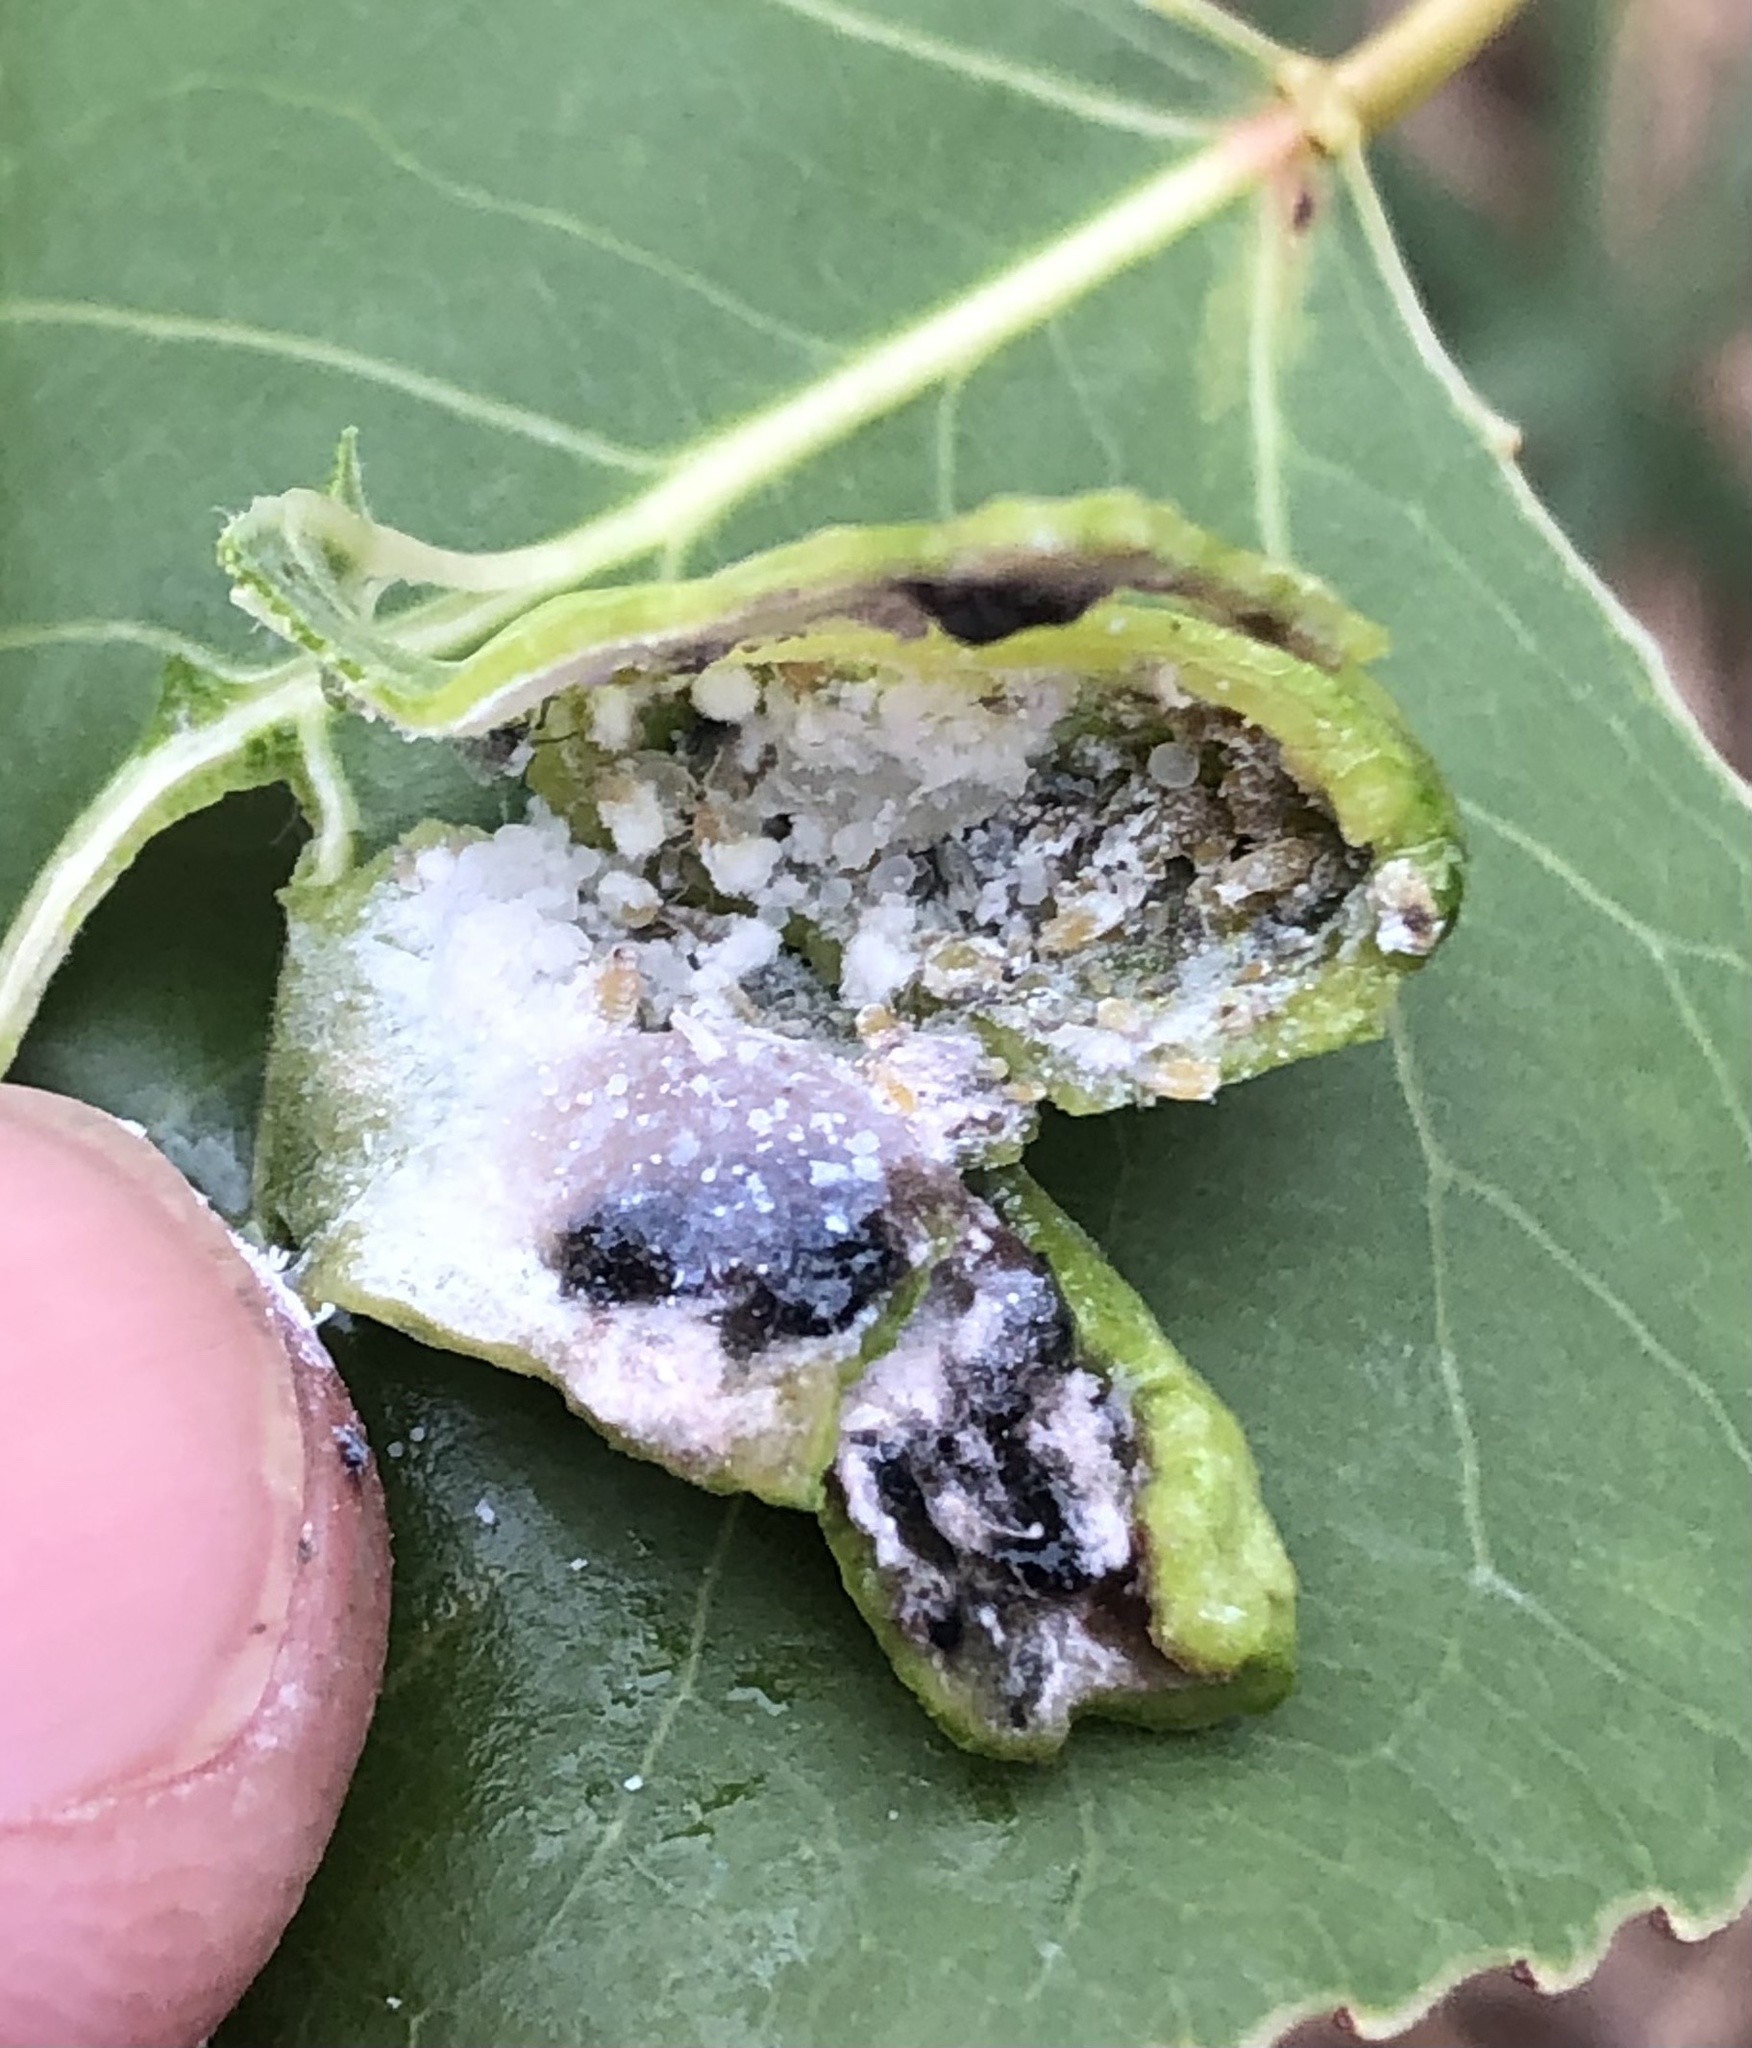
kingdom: Animalia
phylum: Arthropoda
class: Insecta
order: Hemiptera
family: Aphididae
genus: Pemphigus
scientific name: Pemphigus longicornus
